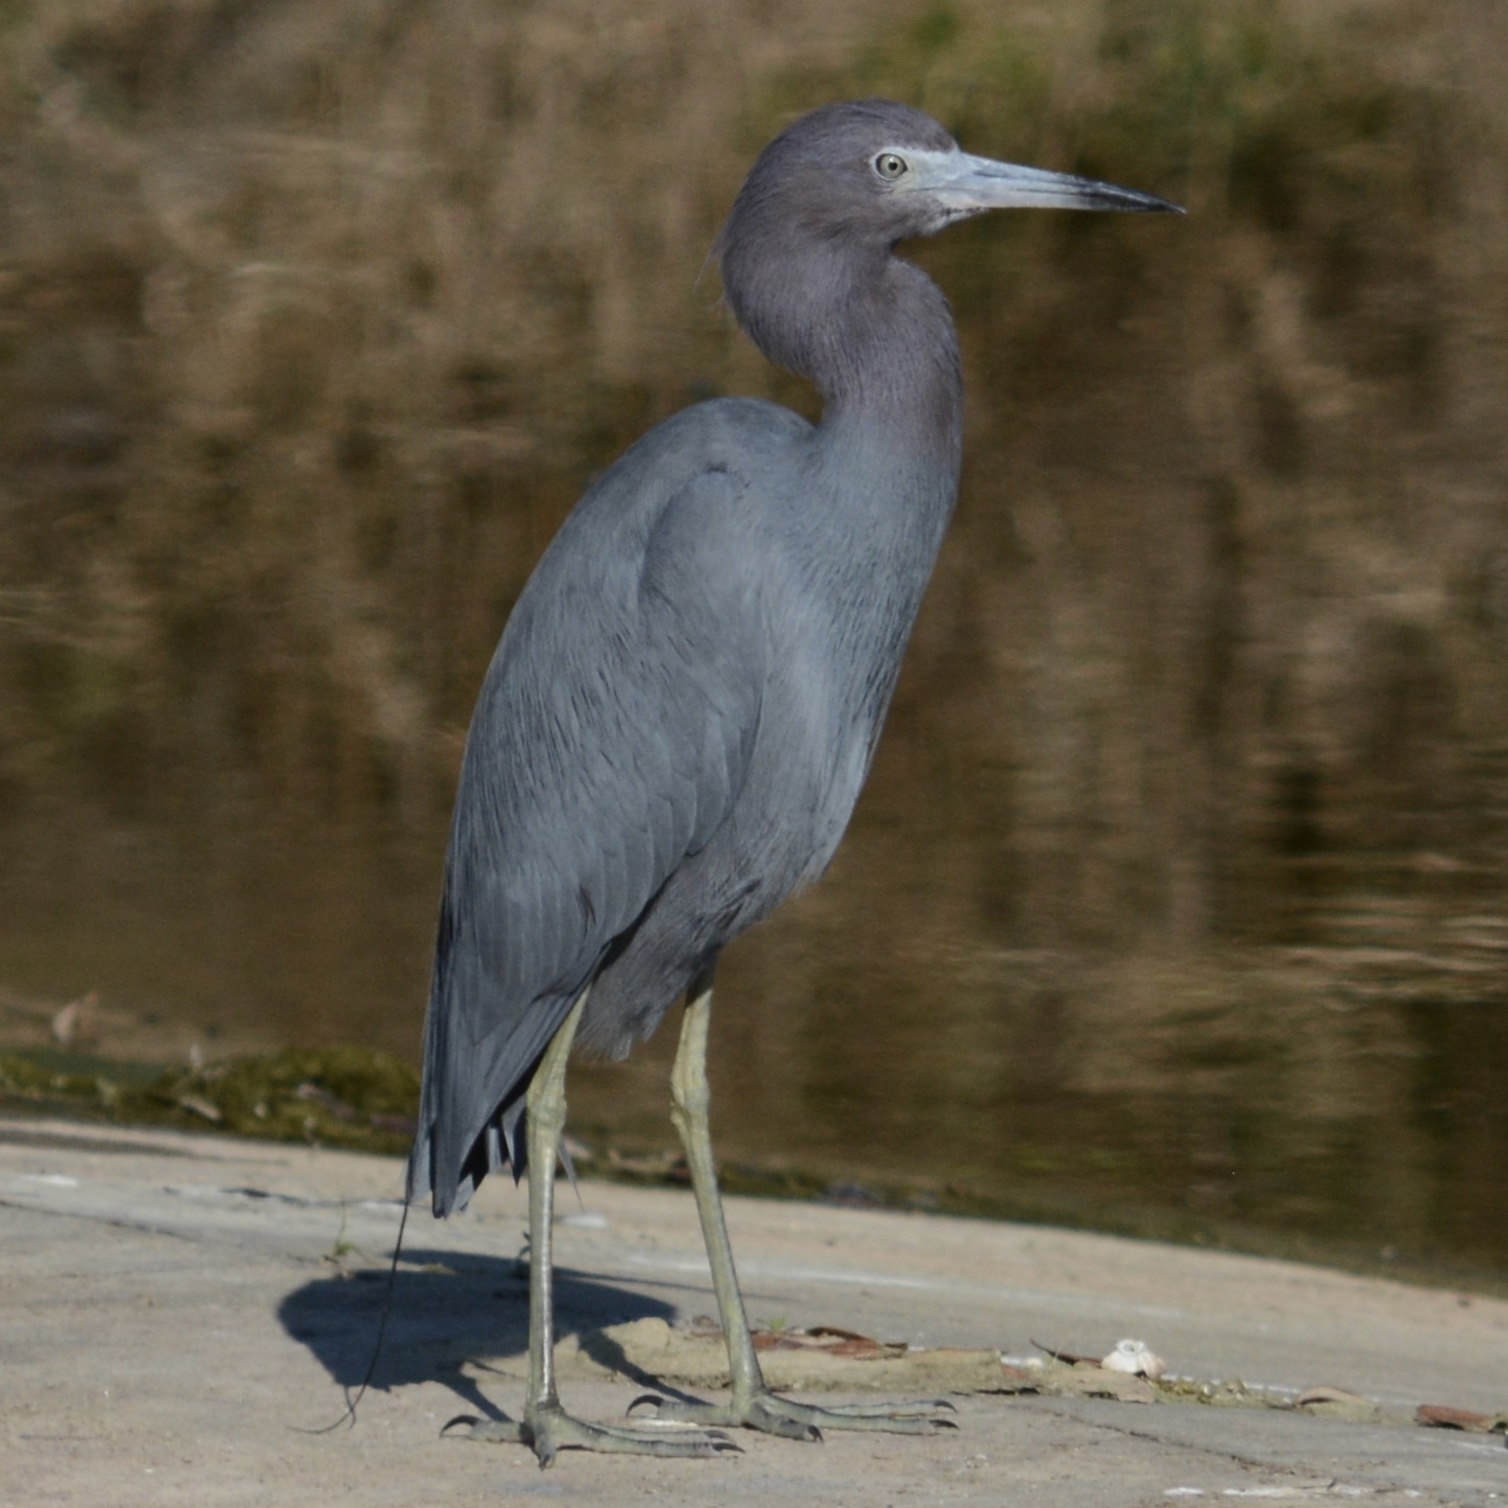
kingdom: Animalia
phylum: Chordata
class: Aves
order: Pelecaniformes
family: Ardeidae
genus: Egretta
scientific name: Egretta caerulea
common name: Little blue heron
